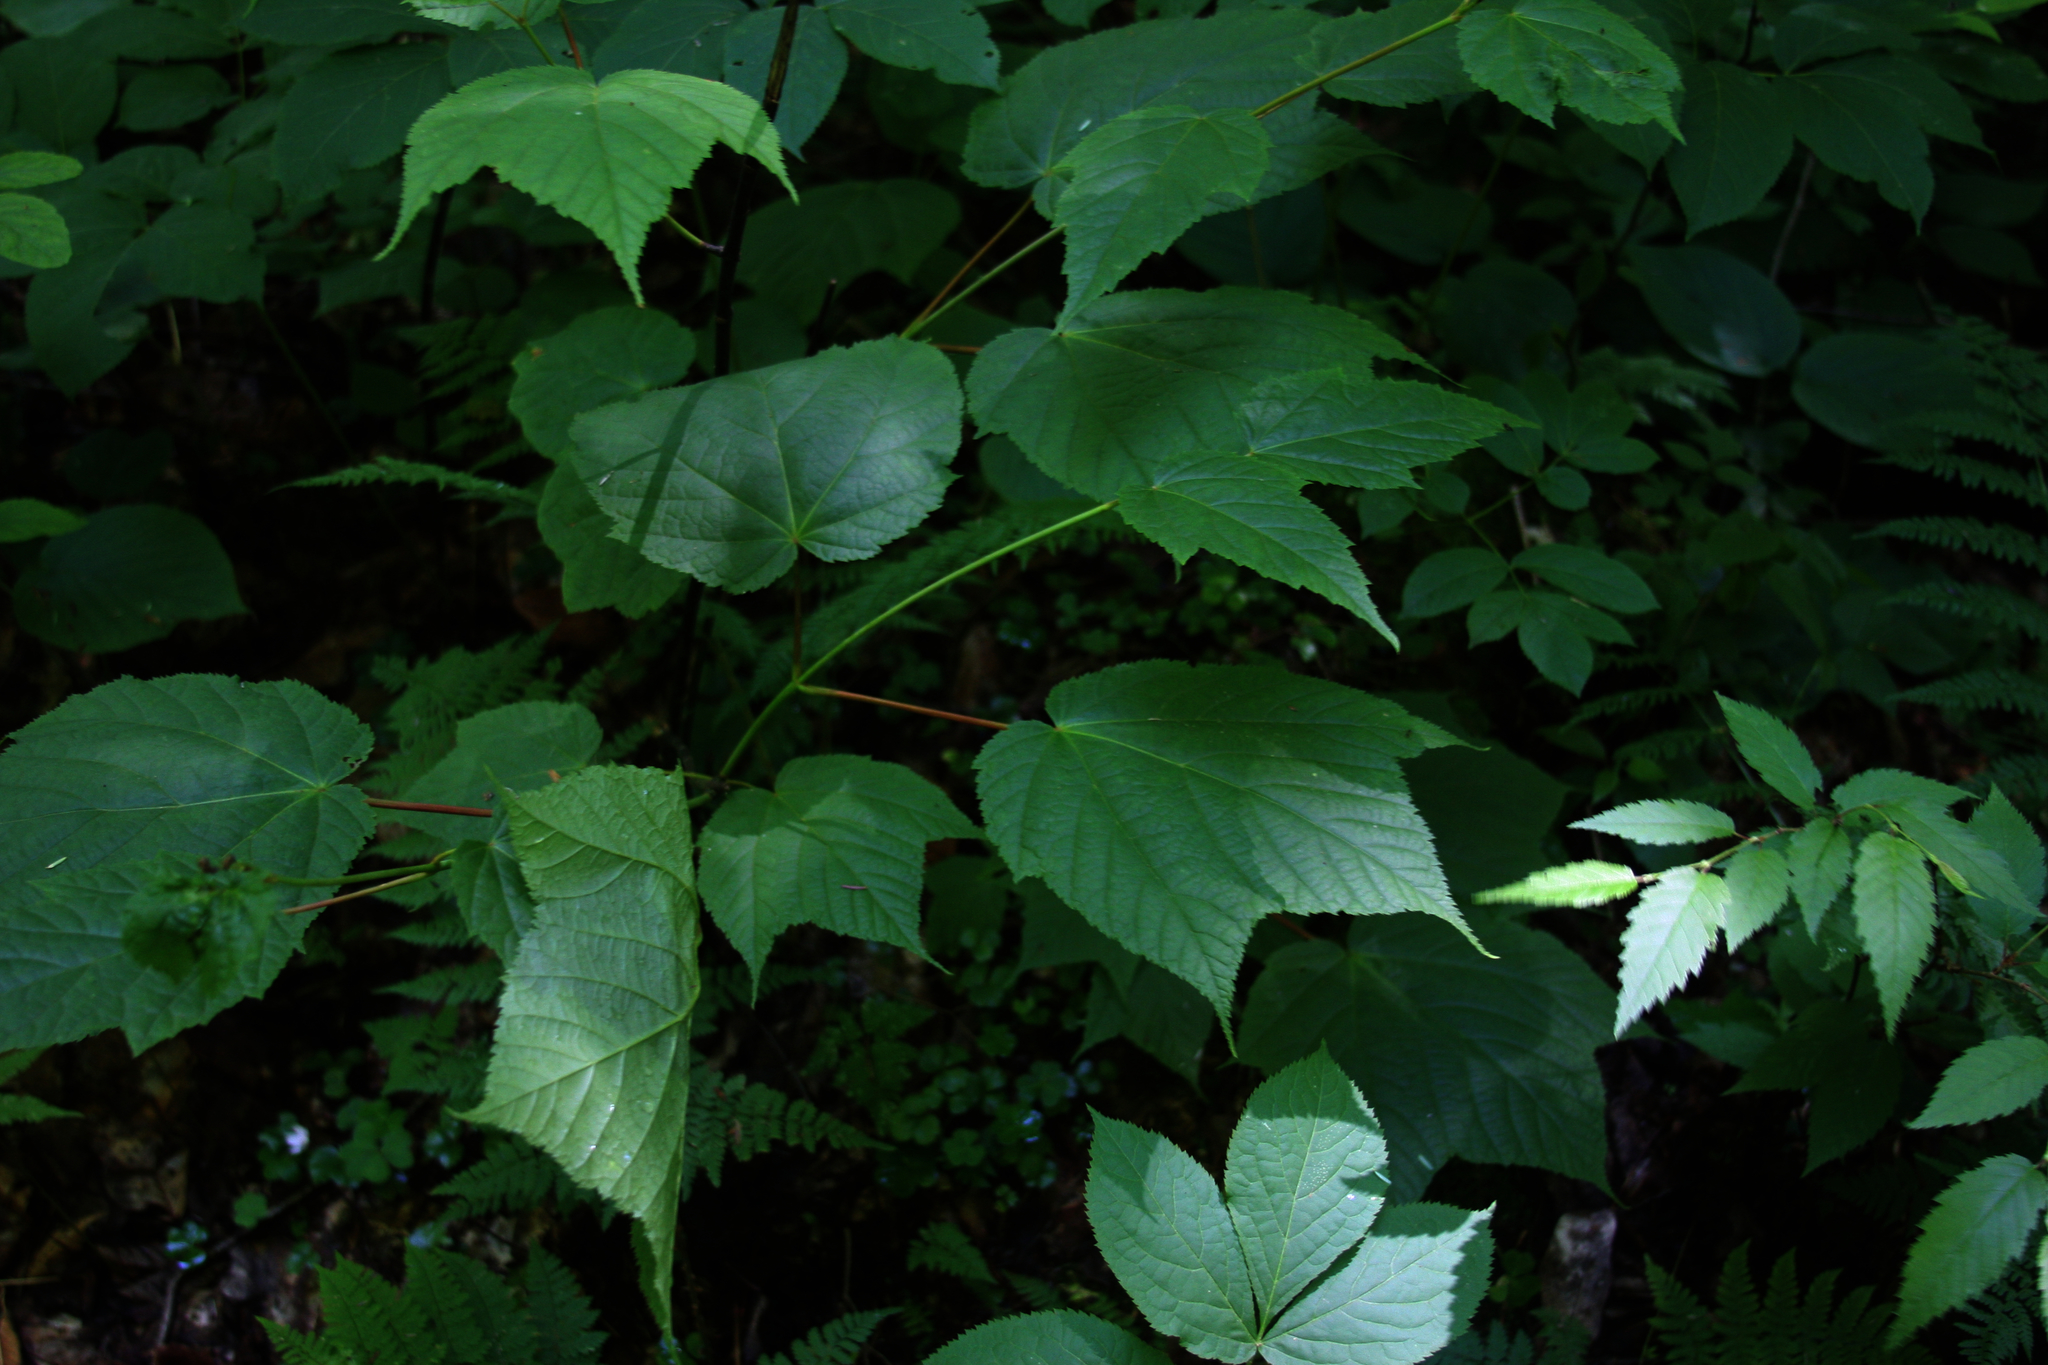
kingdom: Plantae
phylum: Tracheophyta
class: Magnoliopsida
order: Sapindales
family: Sapindaceae
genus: Acer
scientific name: Acer pensylvanicum
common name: Moosewood
